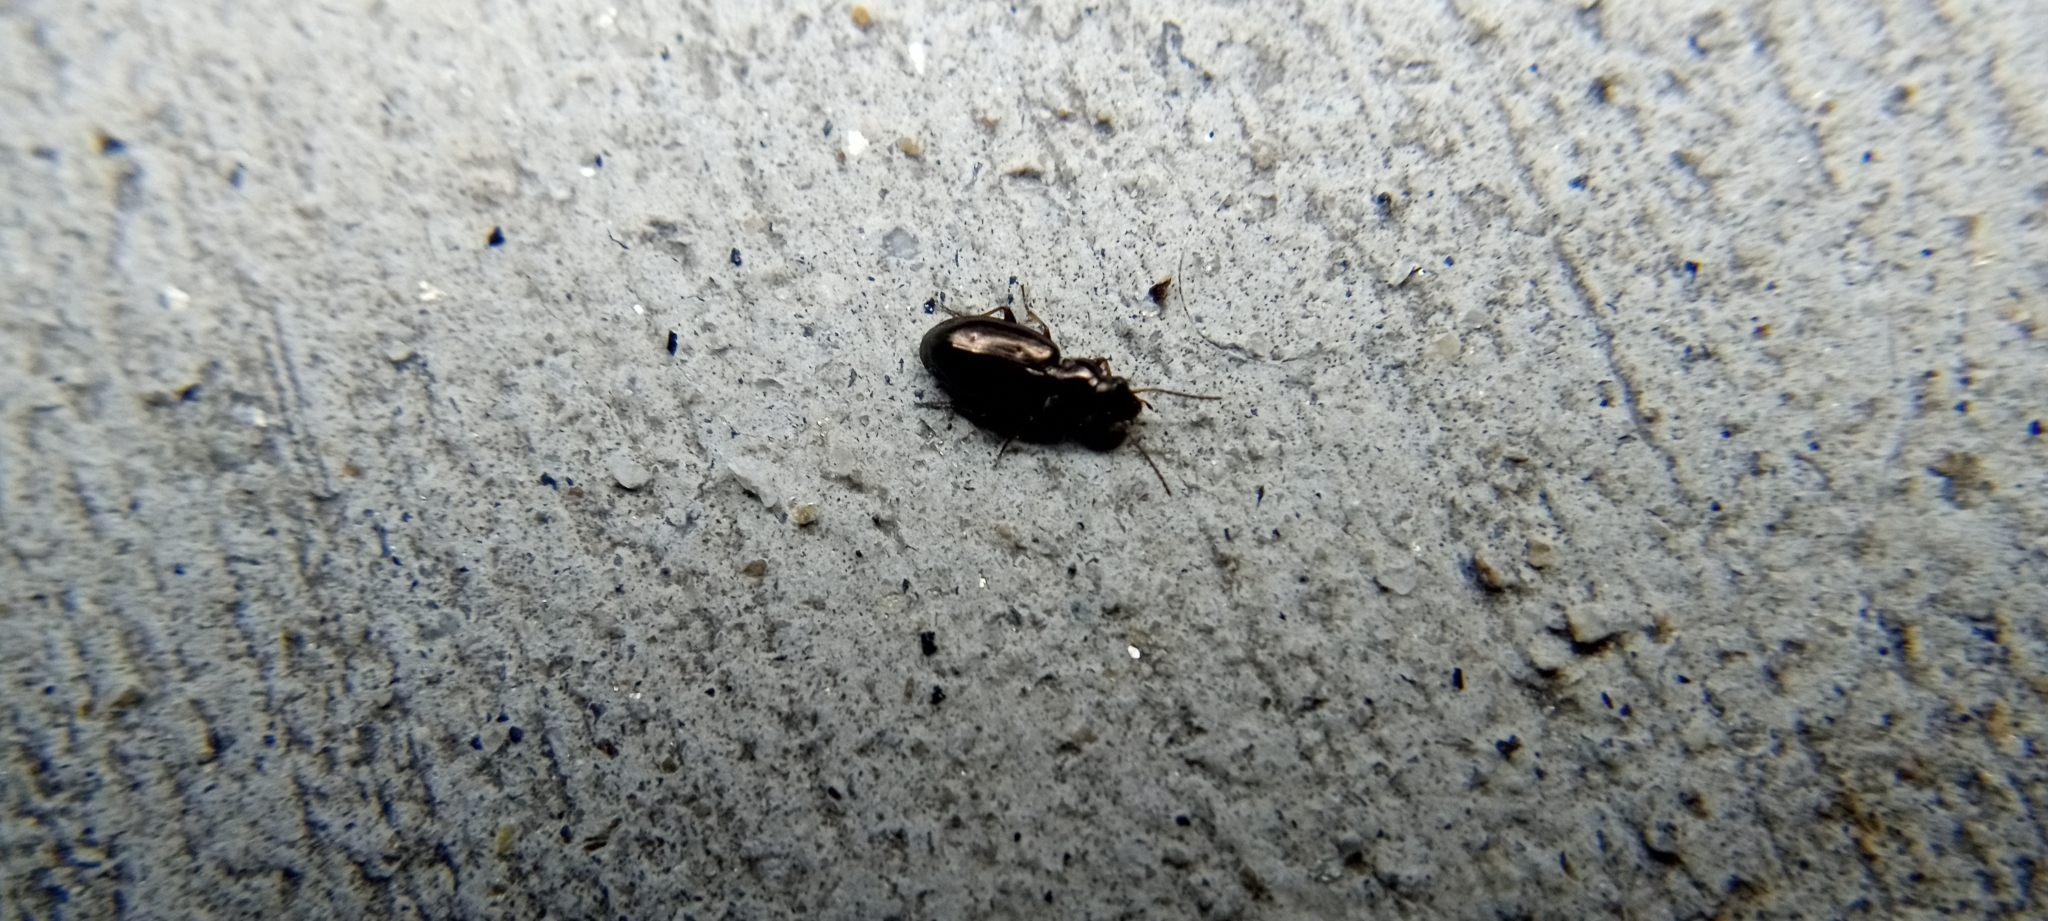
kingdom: Animalia
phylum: Arthropoda
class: Insecta
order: Coleoptera
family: Carabidae
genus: Bembidion
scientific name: Bembidion
